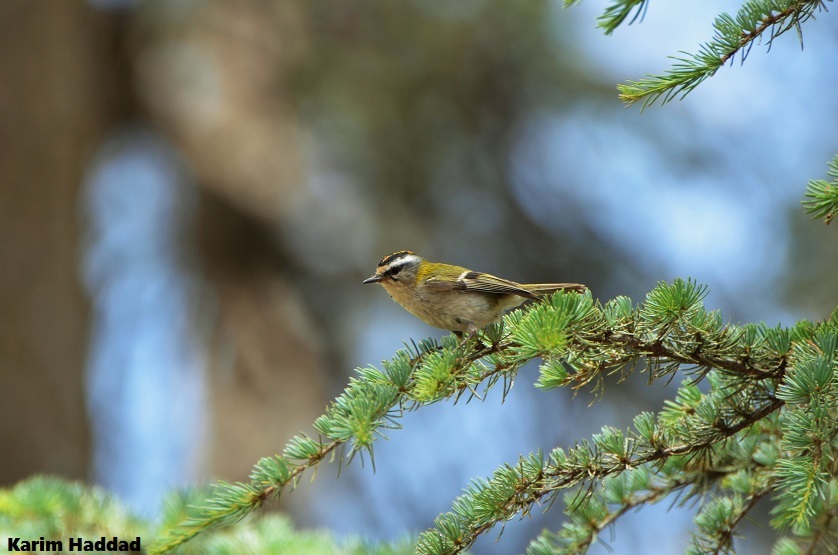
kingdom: Animalia
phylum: Chordata
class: Aves
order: Passeriformes
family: Regulidae
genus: Regulus
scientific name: Regulus ignicapilla
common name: Firecrest
